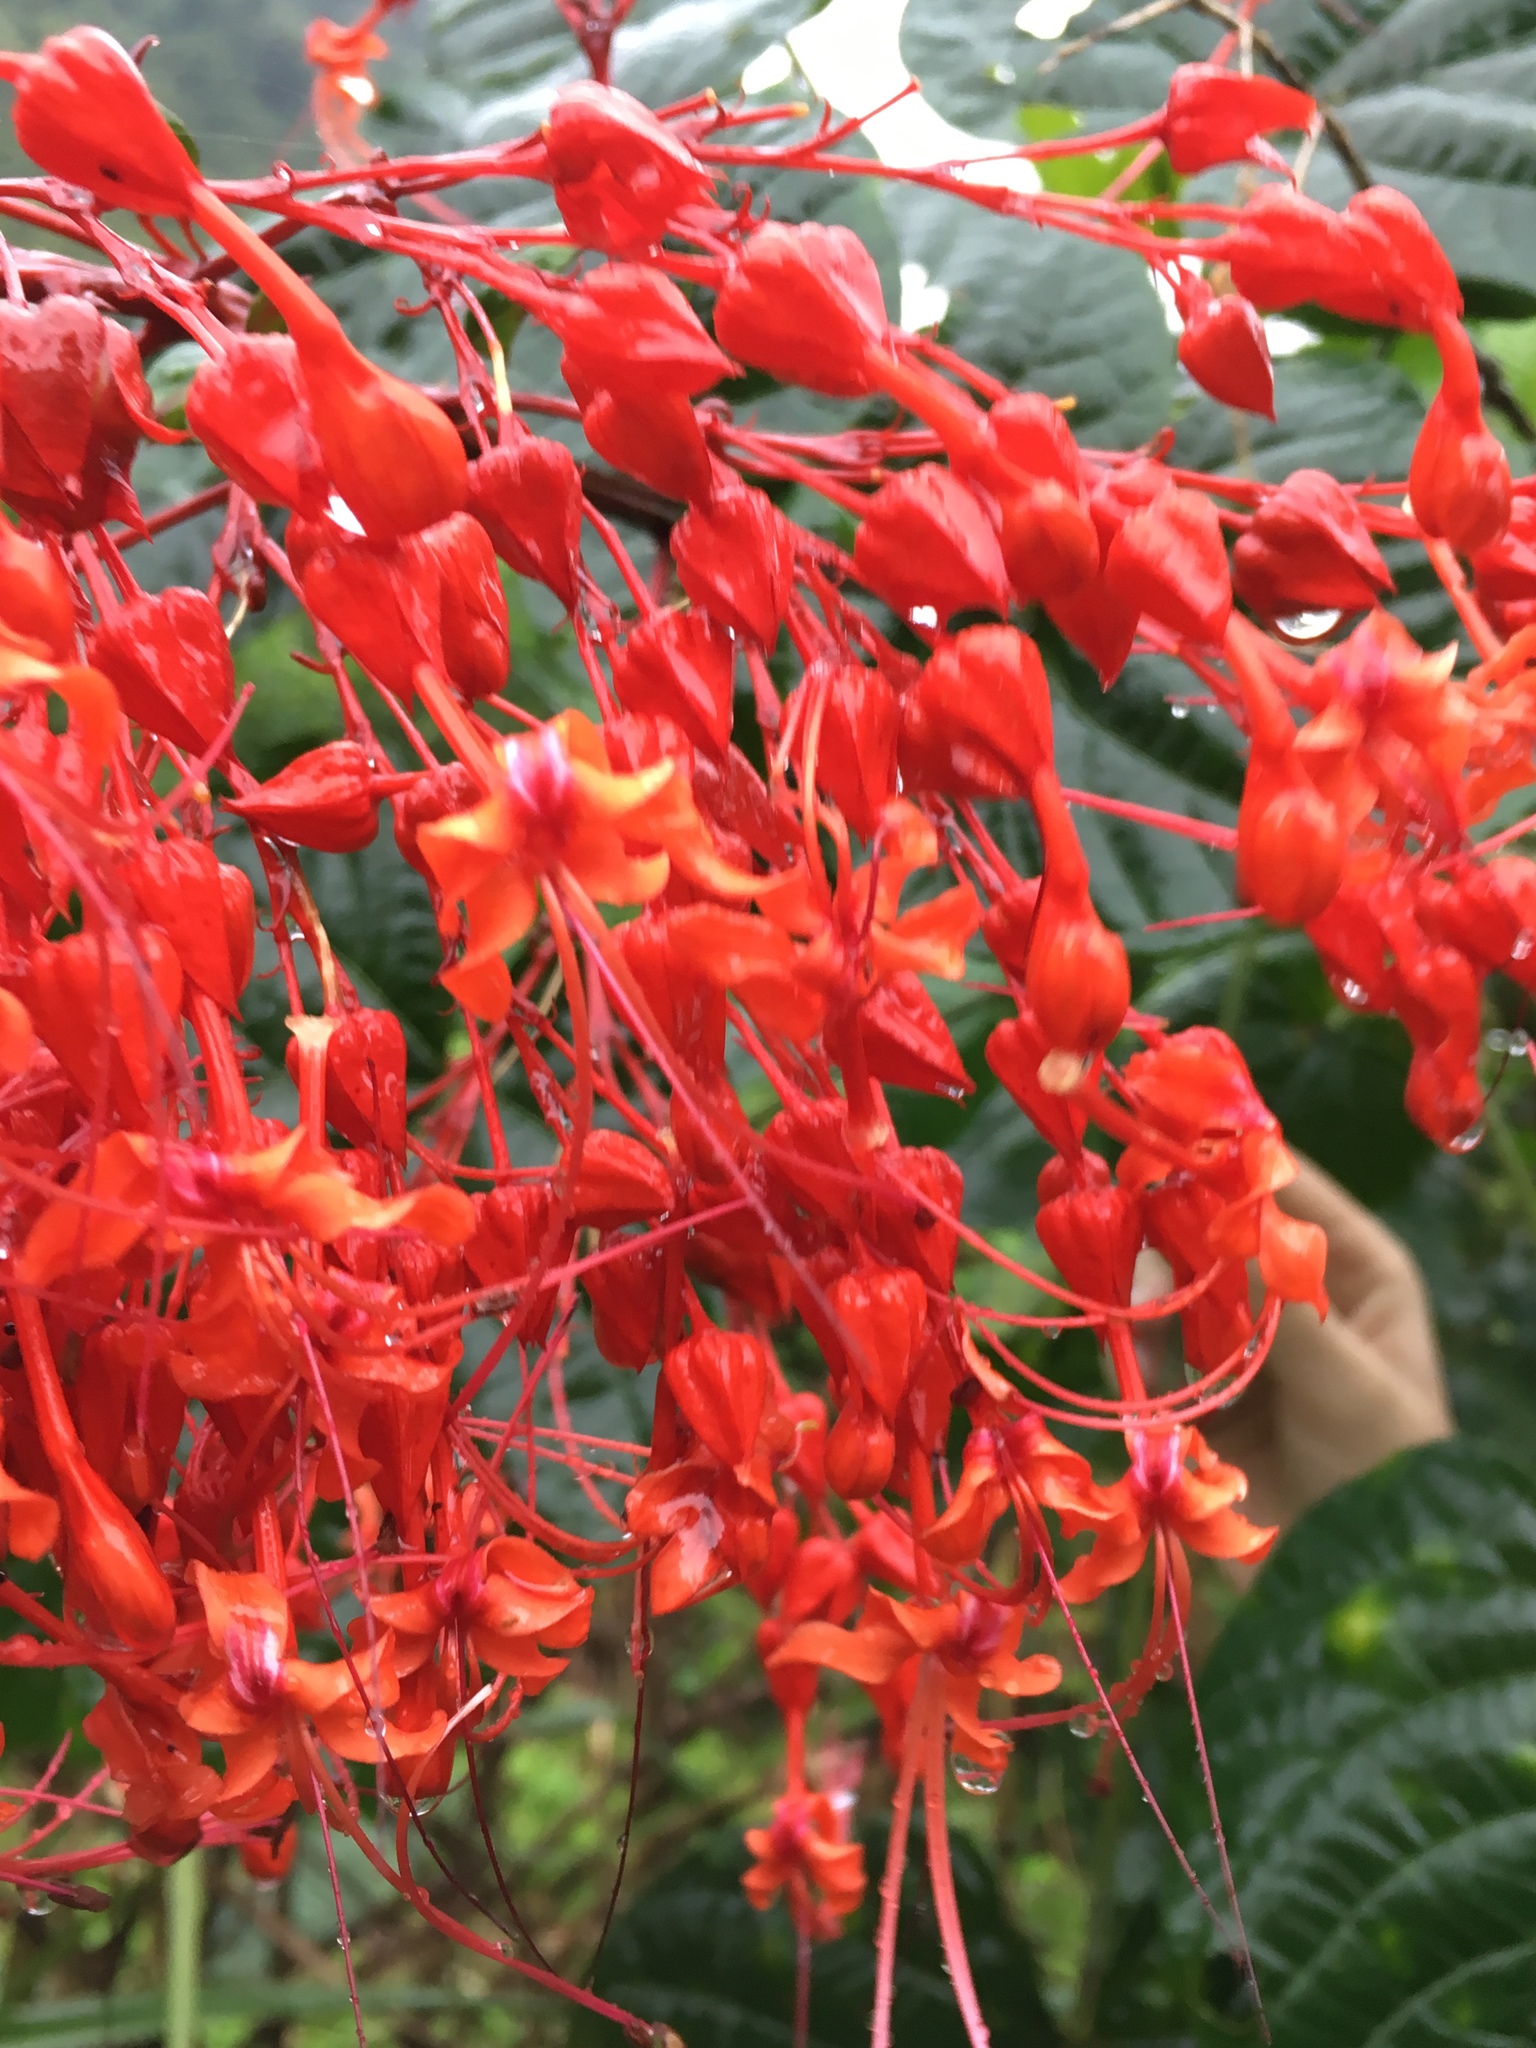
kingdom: Plantae
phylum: Tracheophyta
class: Magnoliopsida
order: Lamiales
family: Lamiaceae
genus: Clerodendrum
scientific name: Clerodendrum paniculatum
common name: Pagoda-flower
